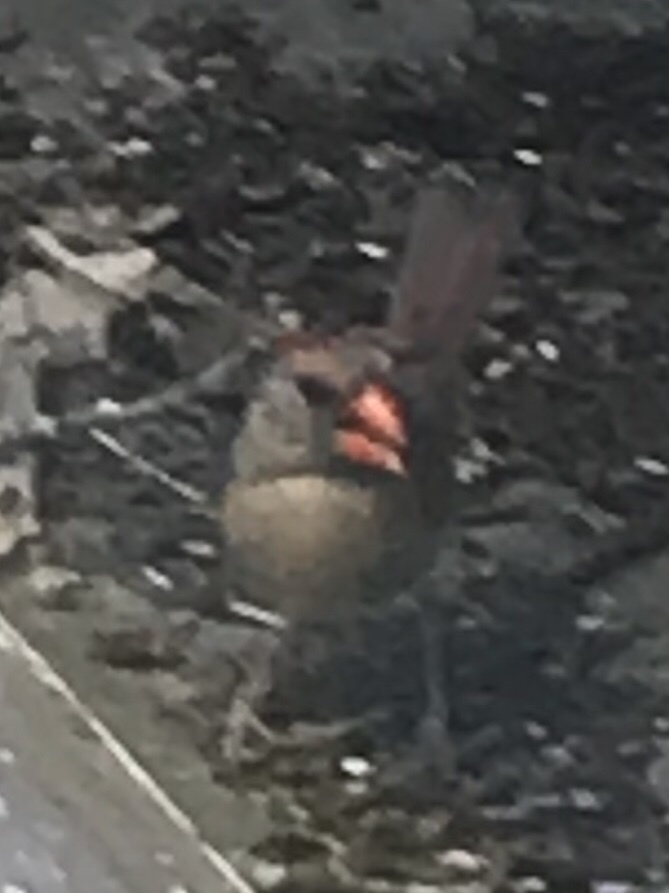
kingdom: Animalia
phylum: Chordata
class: Aves
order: Passeriformes
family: Cardinalidae
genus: Cardinalis
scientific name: Cardinalis cardinalis
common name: Northern cardinal
